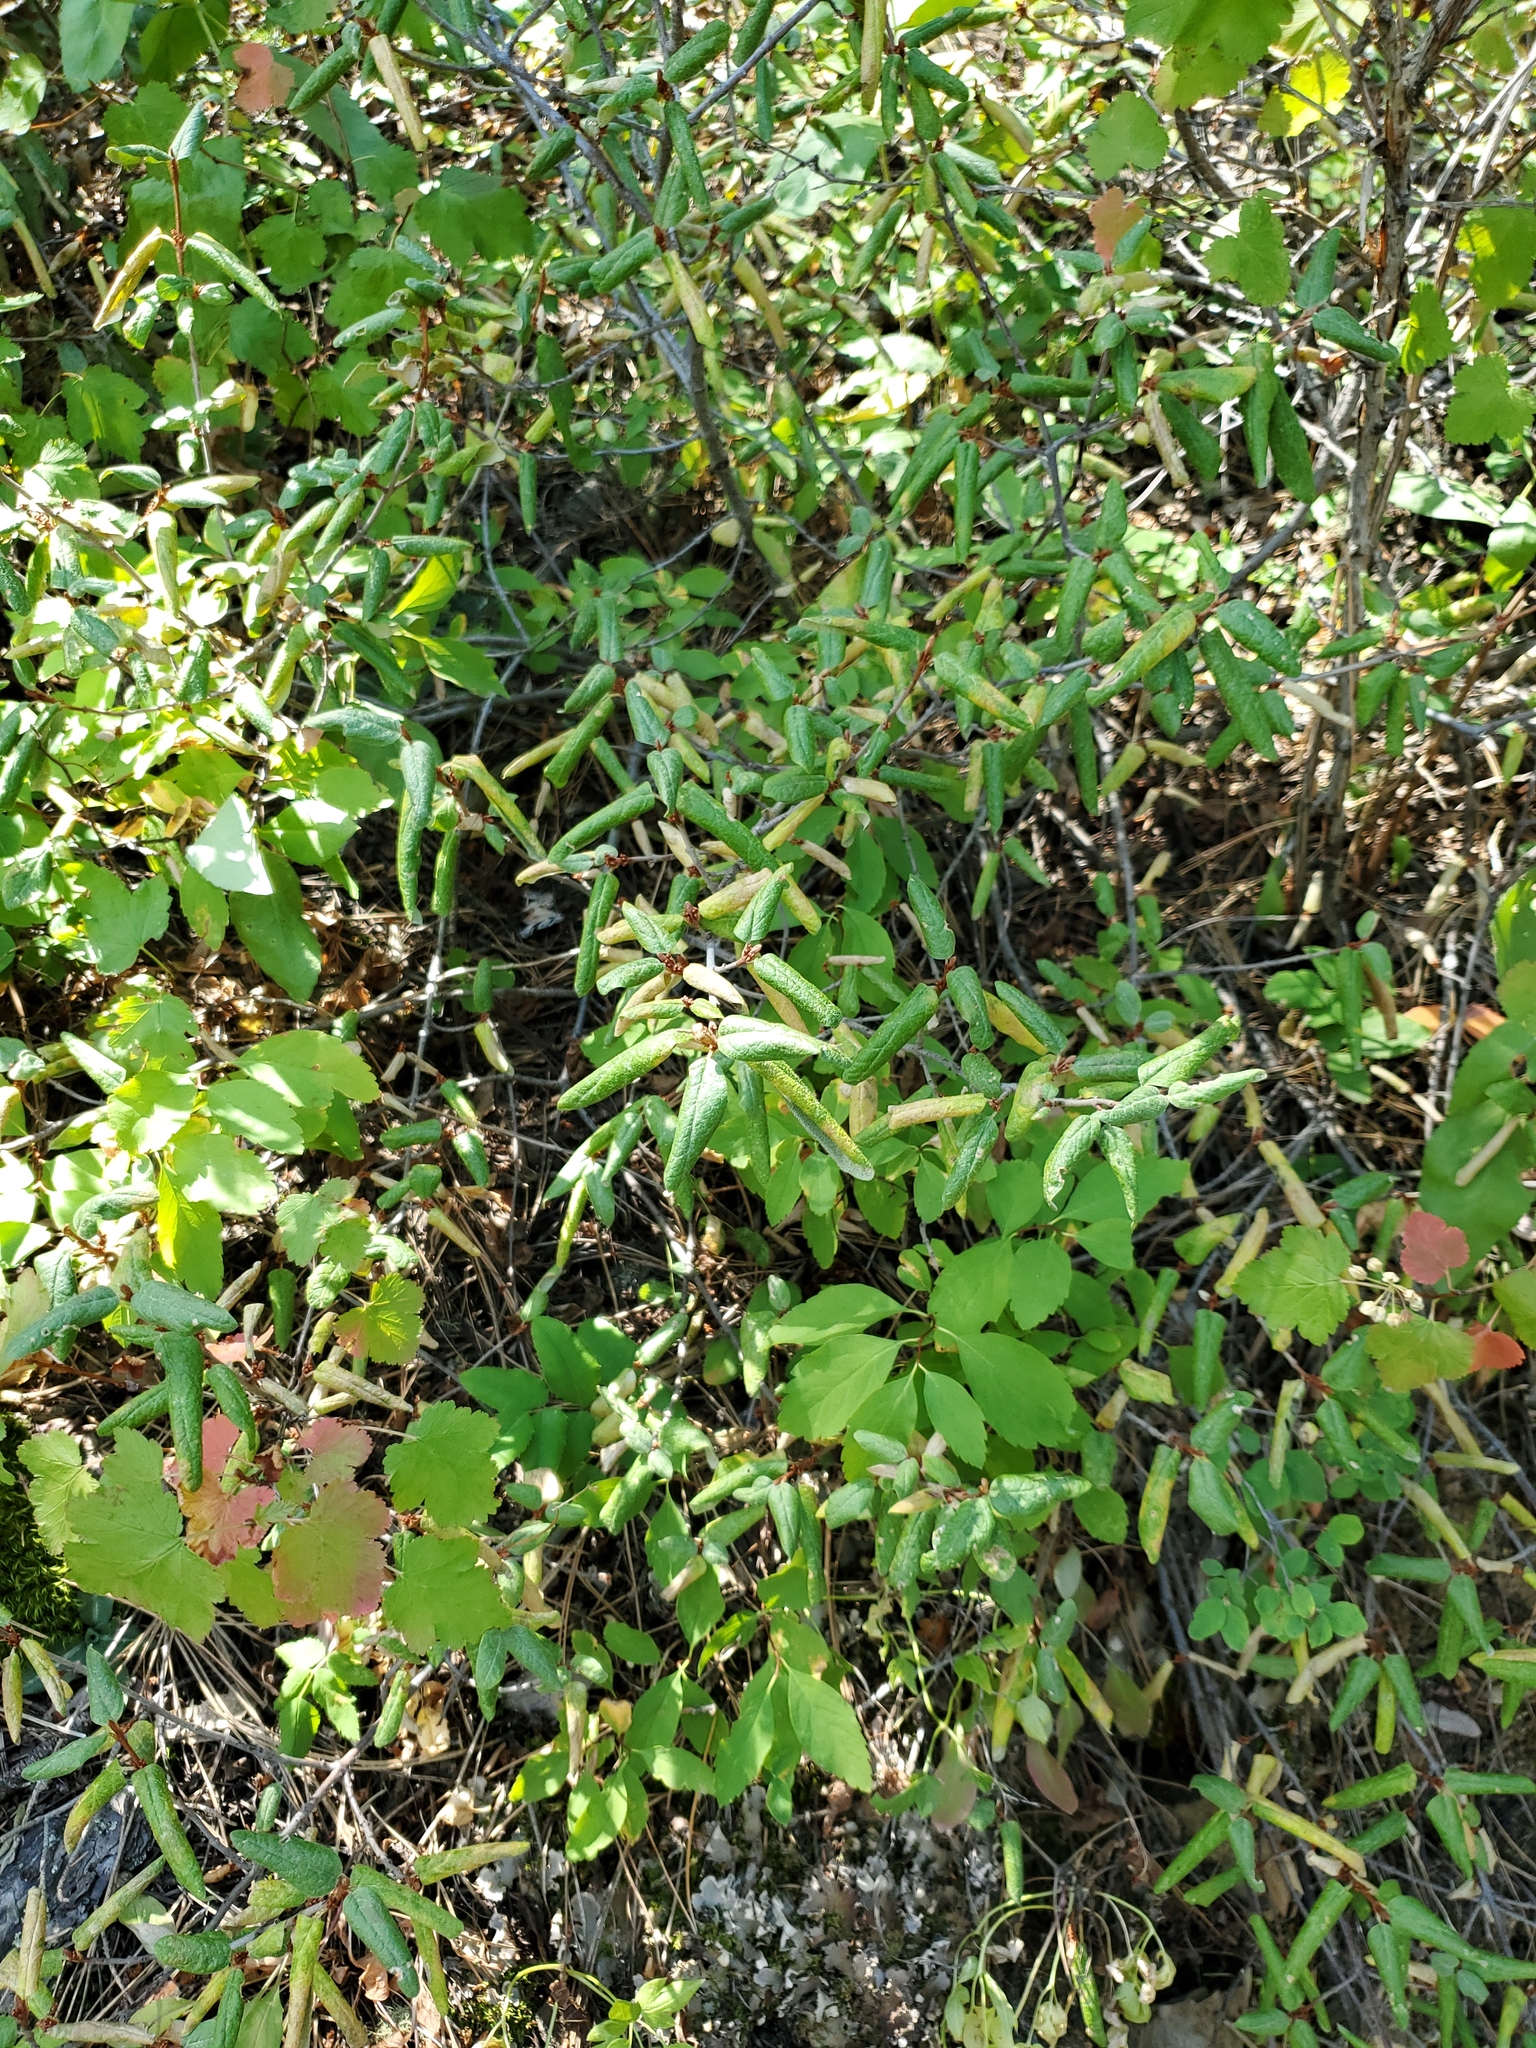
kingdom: Plantae
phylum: Tracheophyta
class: Magnoliopsida
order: Rosales
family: Elaeagnaceae
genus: Shepherdia
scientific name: Shepherdia canadensis
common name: Soapberry
